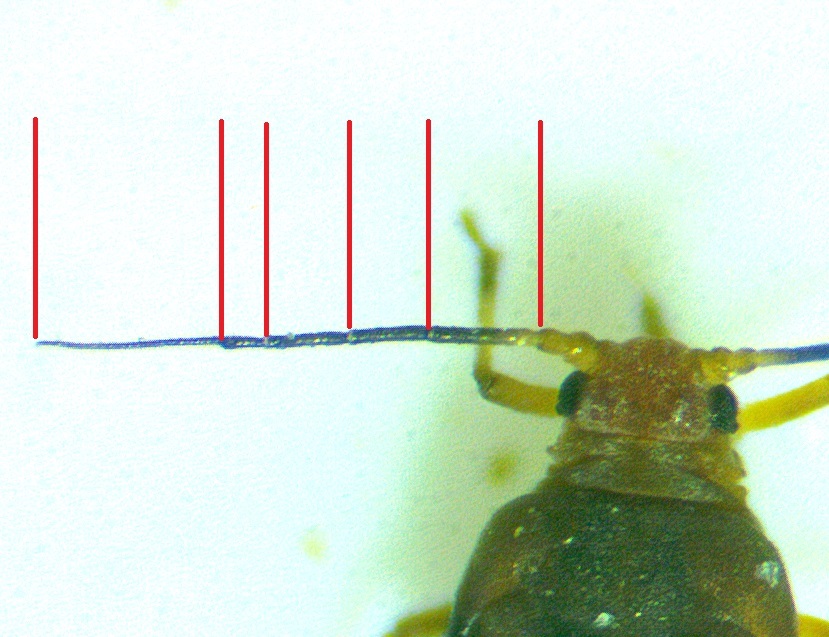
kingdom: Animalia
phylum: Arthropoda
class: Insecta
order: Hemiptera
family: Aphididae
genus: Aphis
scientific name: Aphis coreopsidis
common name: Aphid
